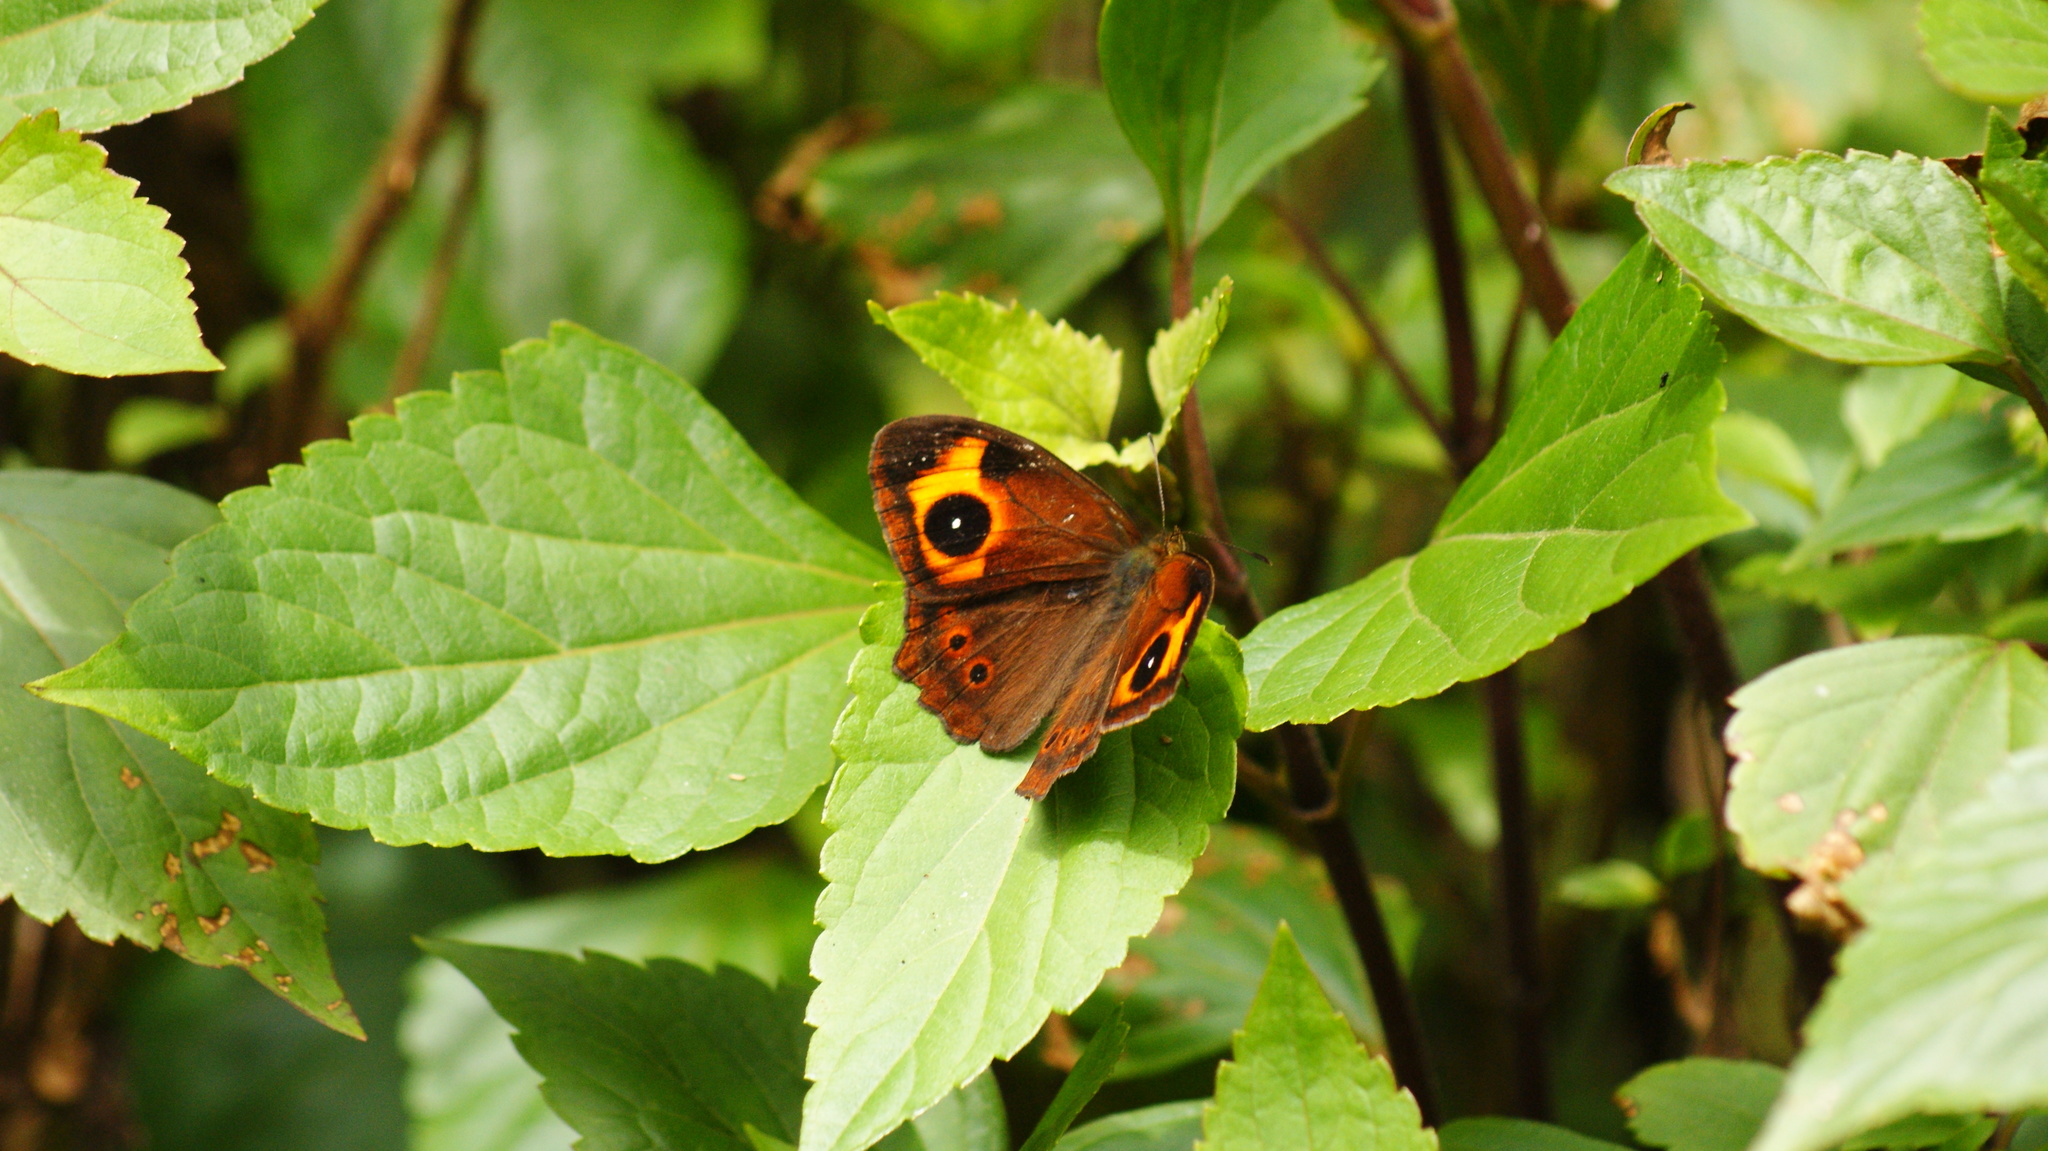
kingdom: Animalia
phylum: Arthropoda
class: Insecta
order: Lepidoptera
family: Nymphalidae
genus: Mycalesis
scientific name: Mycalesis Telinga oculus
